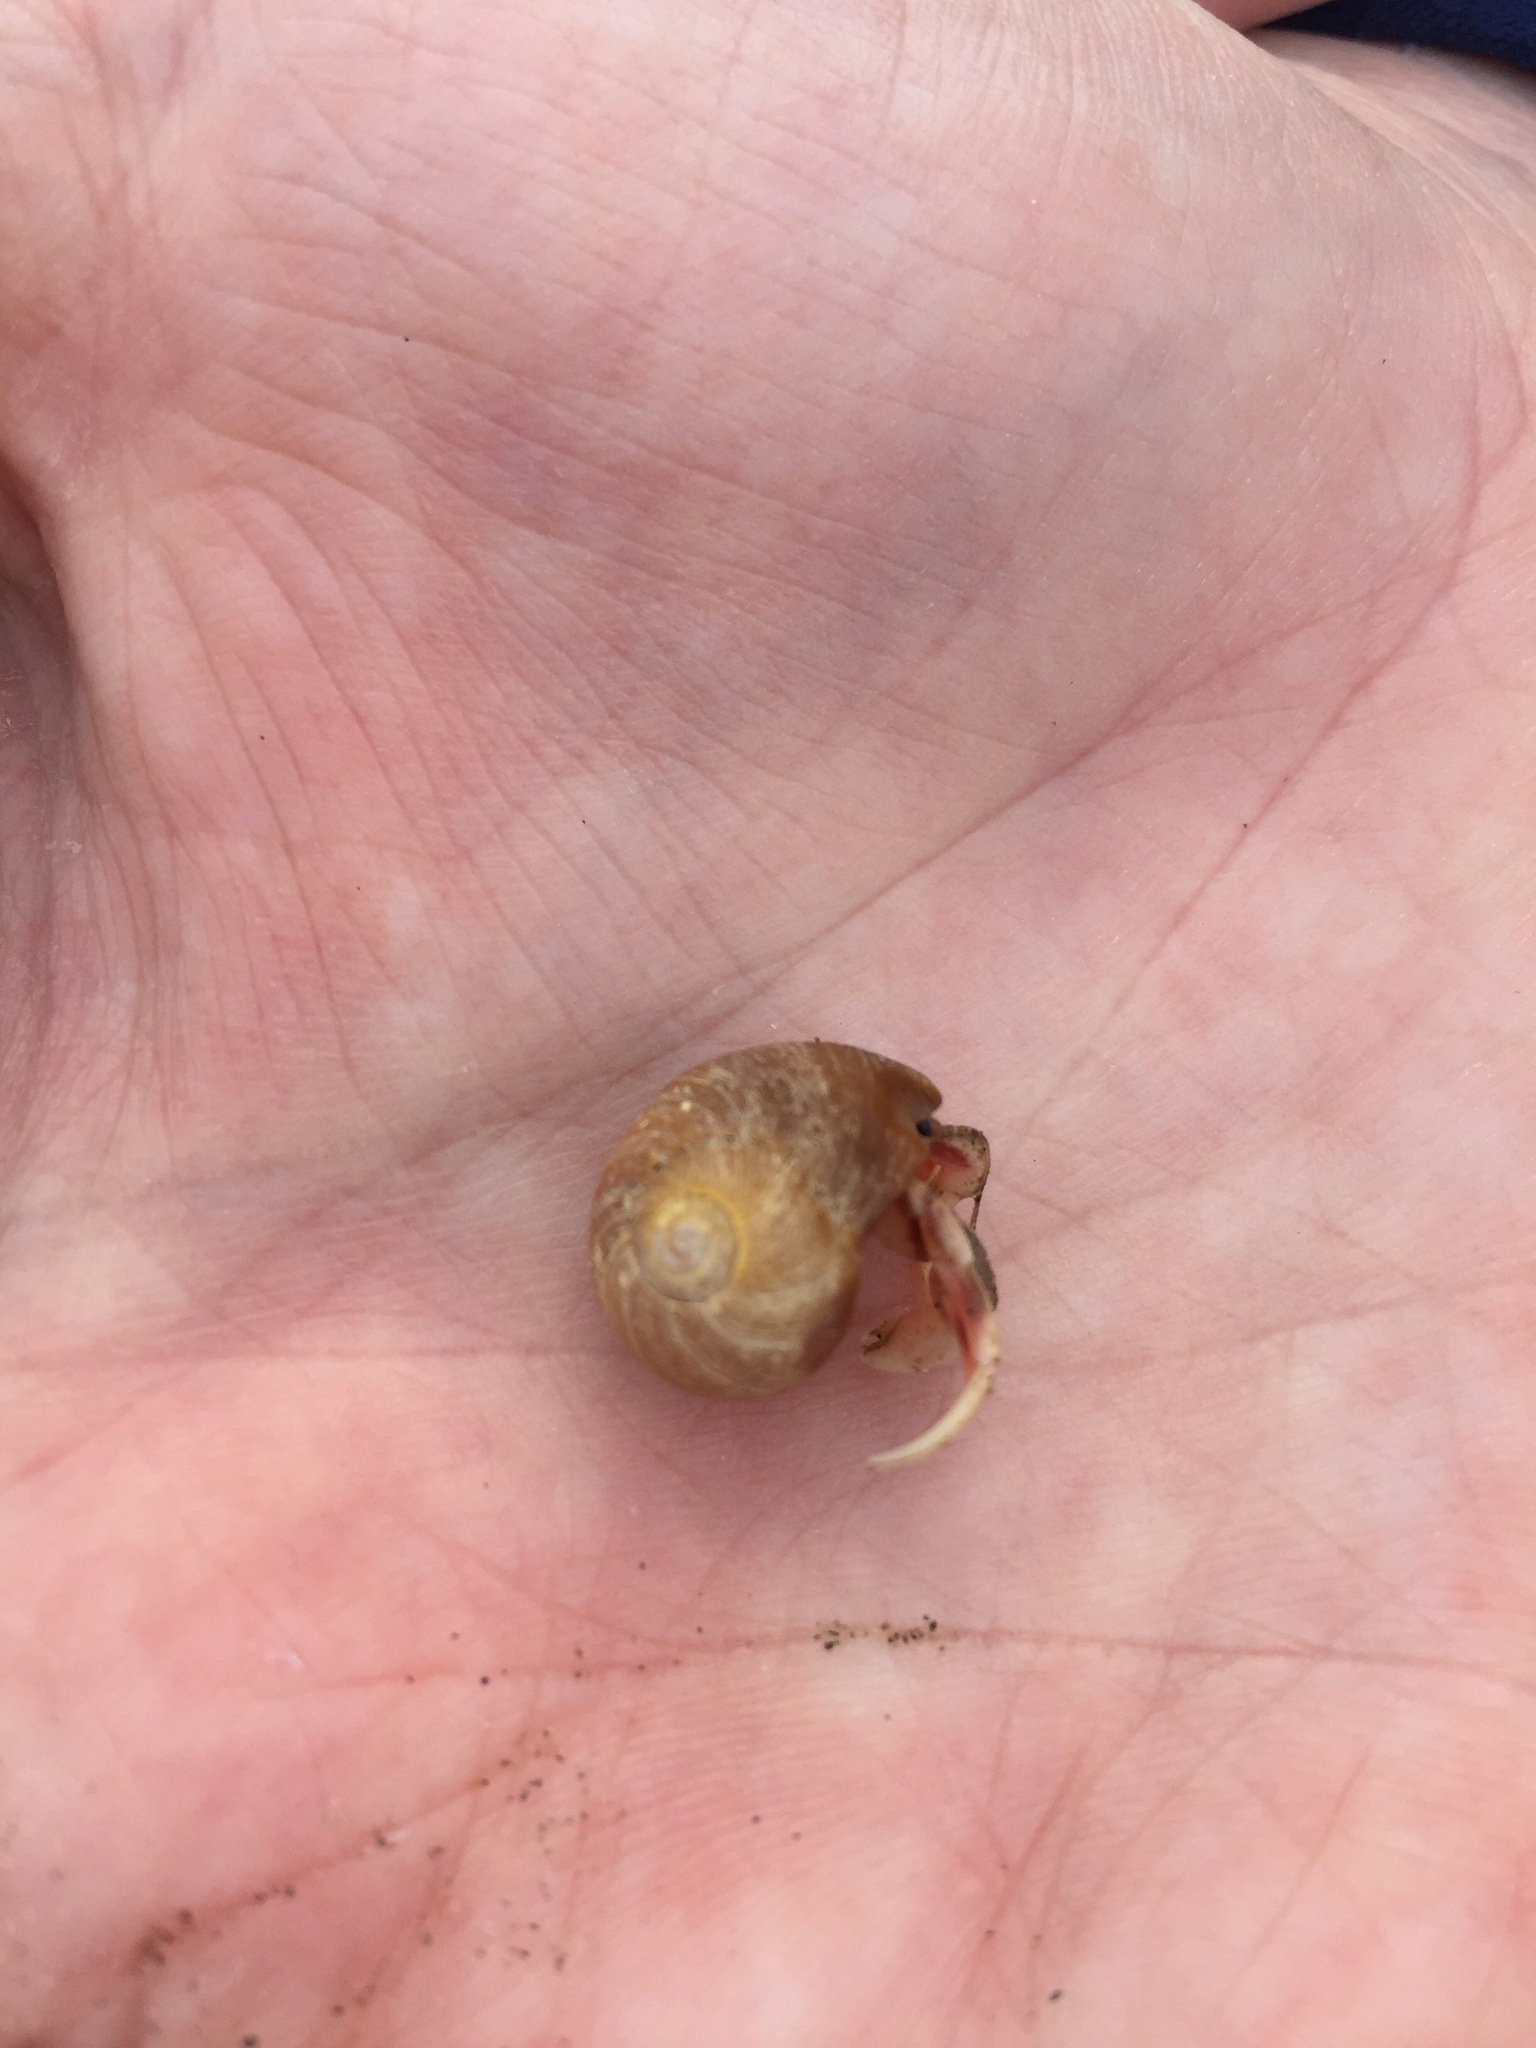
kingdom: Animalia
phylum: Arthropoda
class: Malacostraca
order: Decapoda
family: Paguridae
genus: Pagurus
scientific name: Pagurus longicarpus
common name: Long-armed hermit crab
